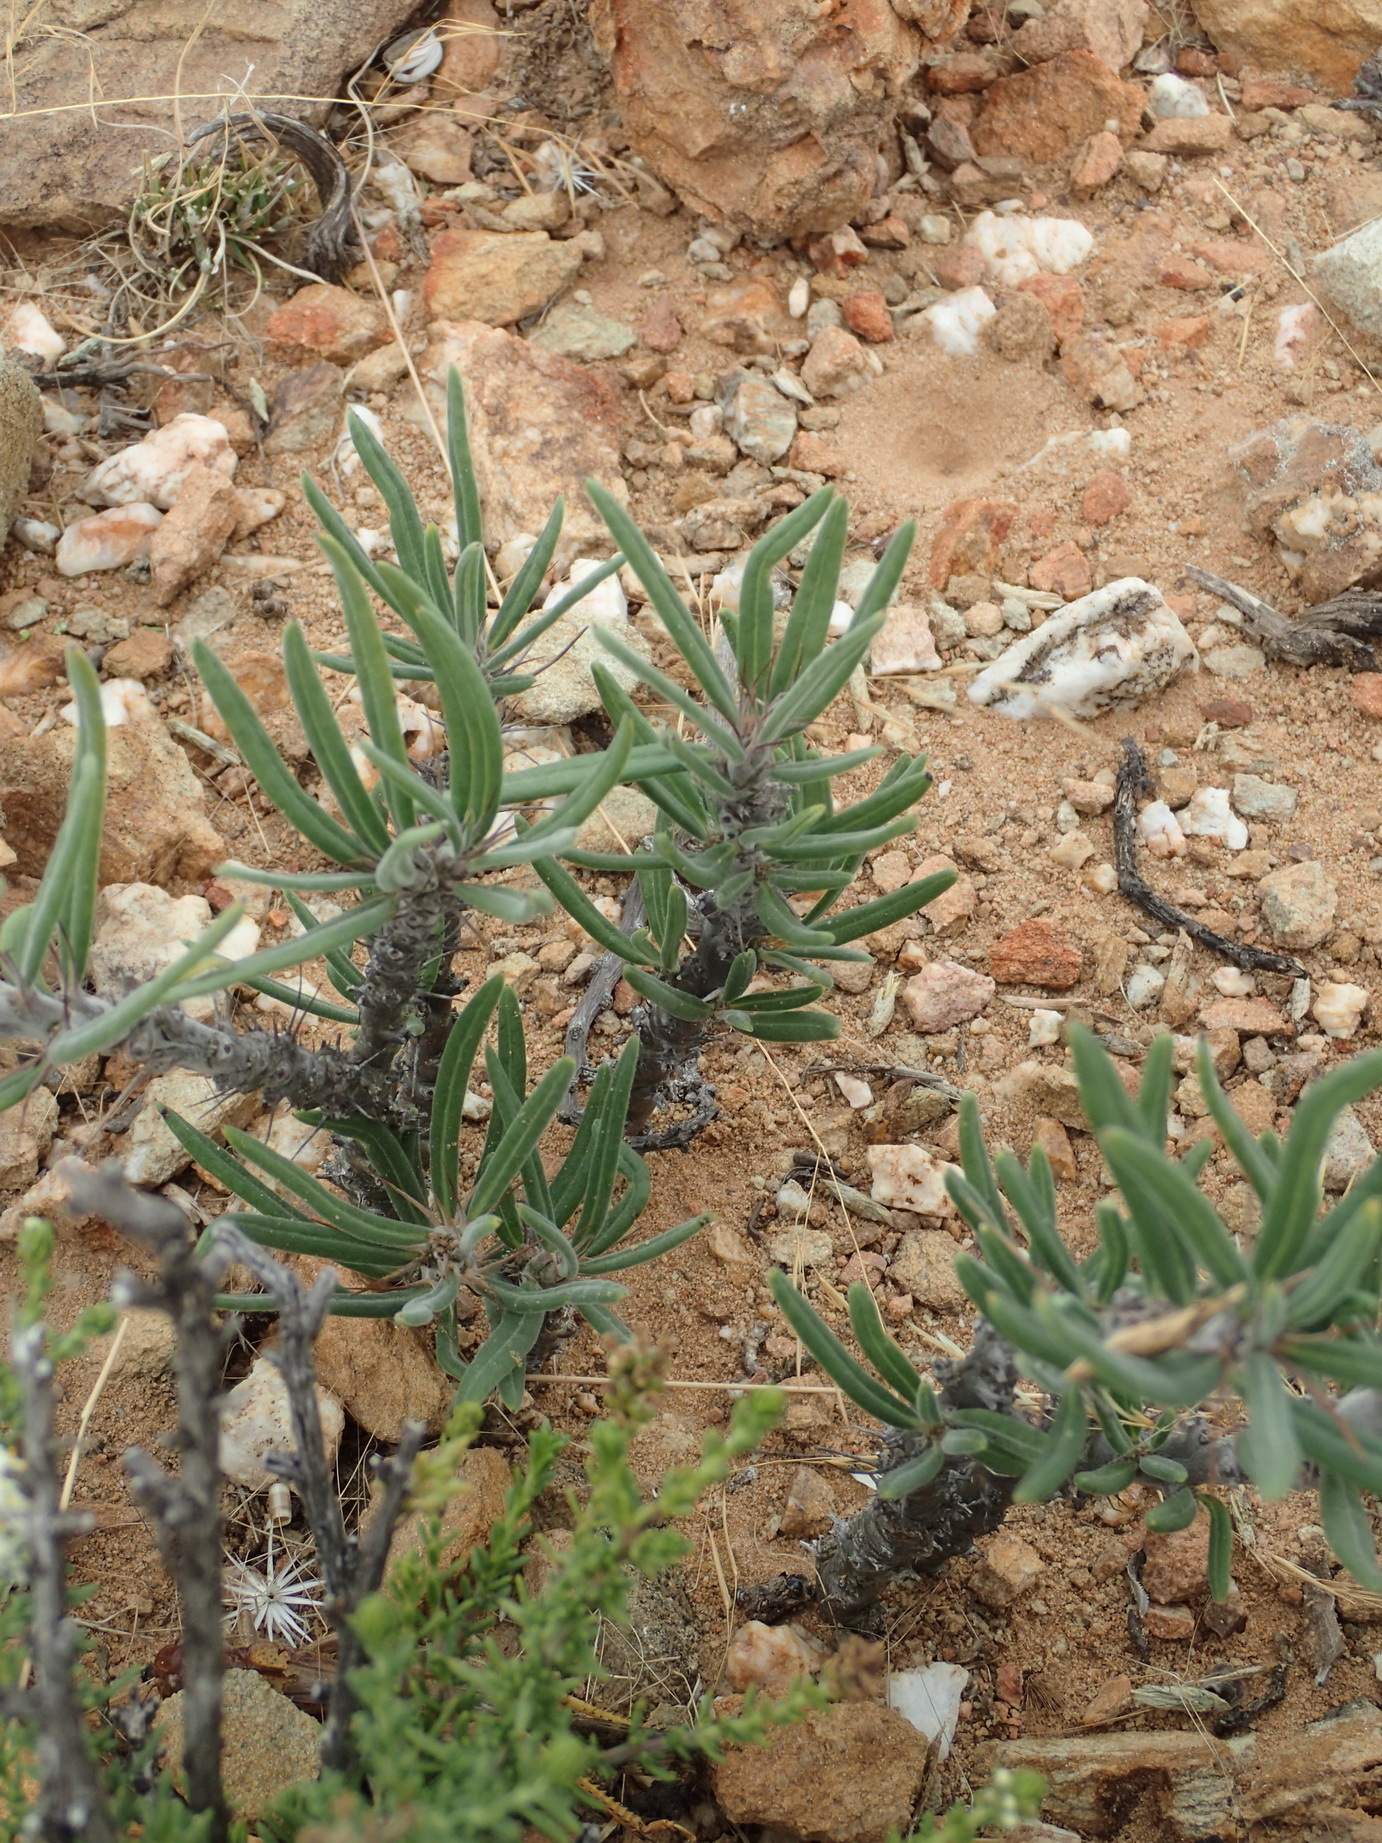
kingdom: Plantae
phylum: Tracheophyta
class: Magnoliopsida
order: Gentianales
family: Apocynaceae
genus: Pachypodium
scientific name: Pachypodium succulentum
